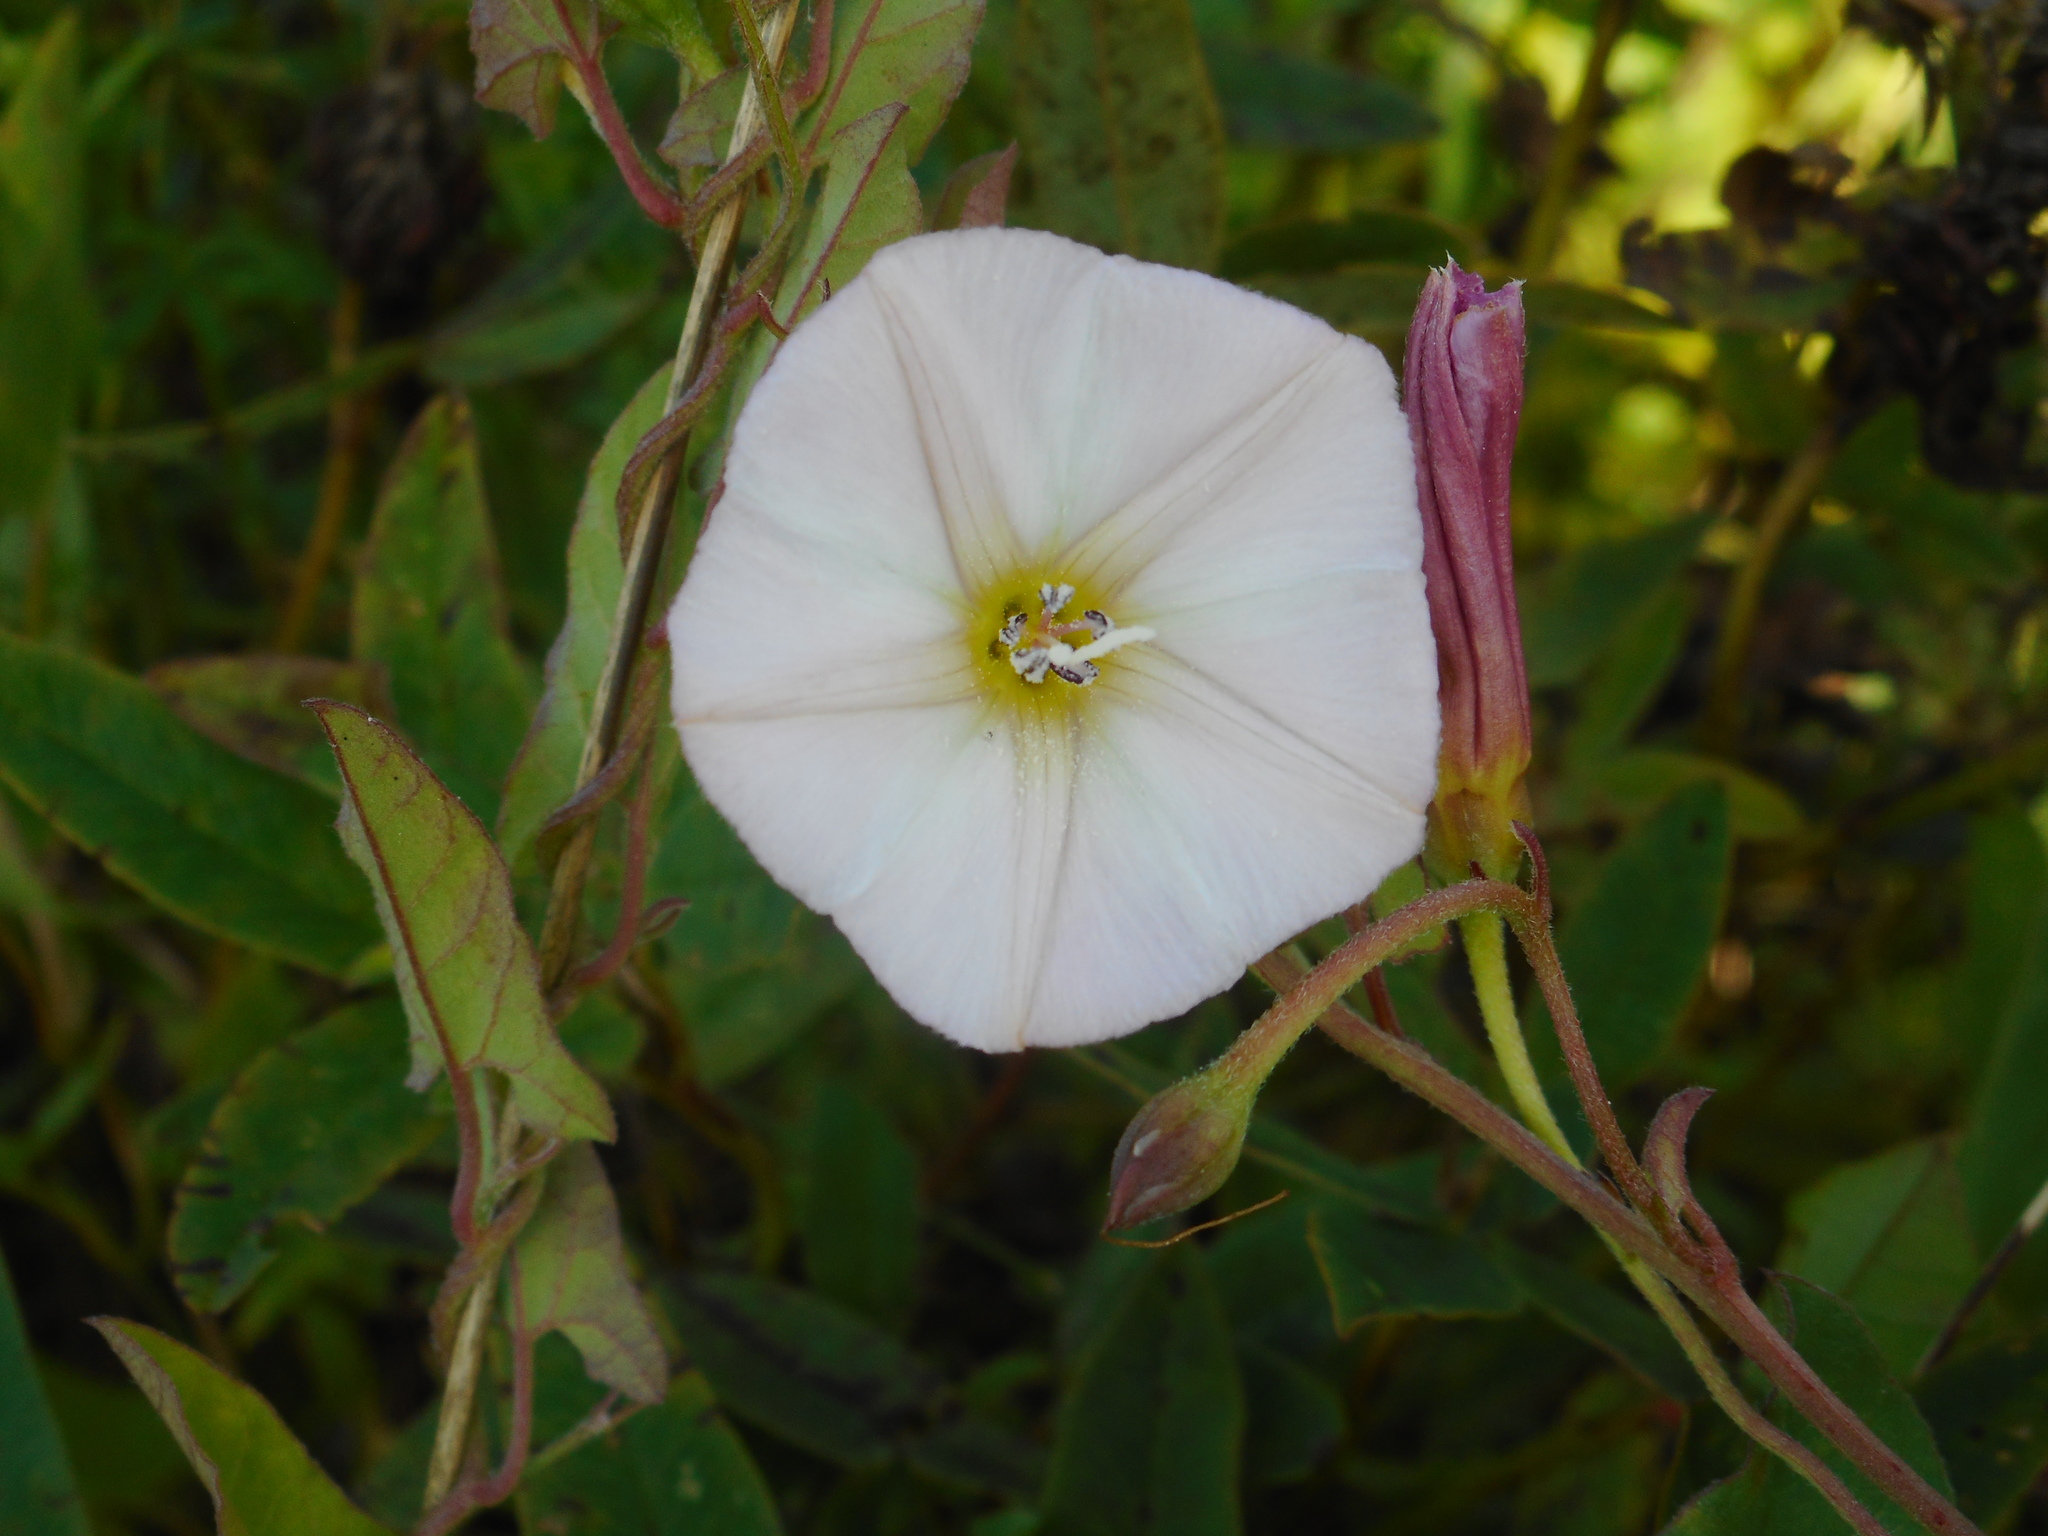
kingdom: Plantae
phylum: Tracheophyta
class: Magnoliopsida
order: Solanales
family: Convolvulaceae
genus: Convolvulus
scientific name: Convolvulus arvensis
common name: Field bindweed
